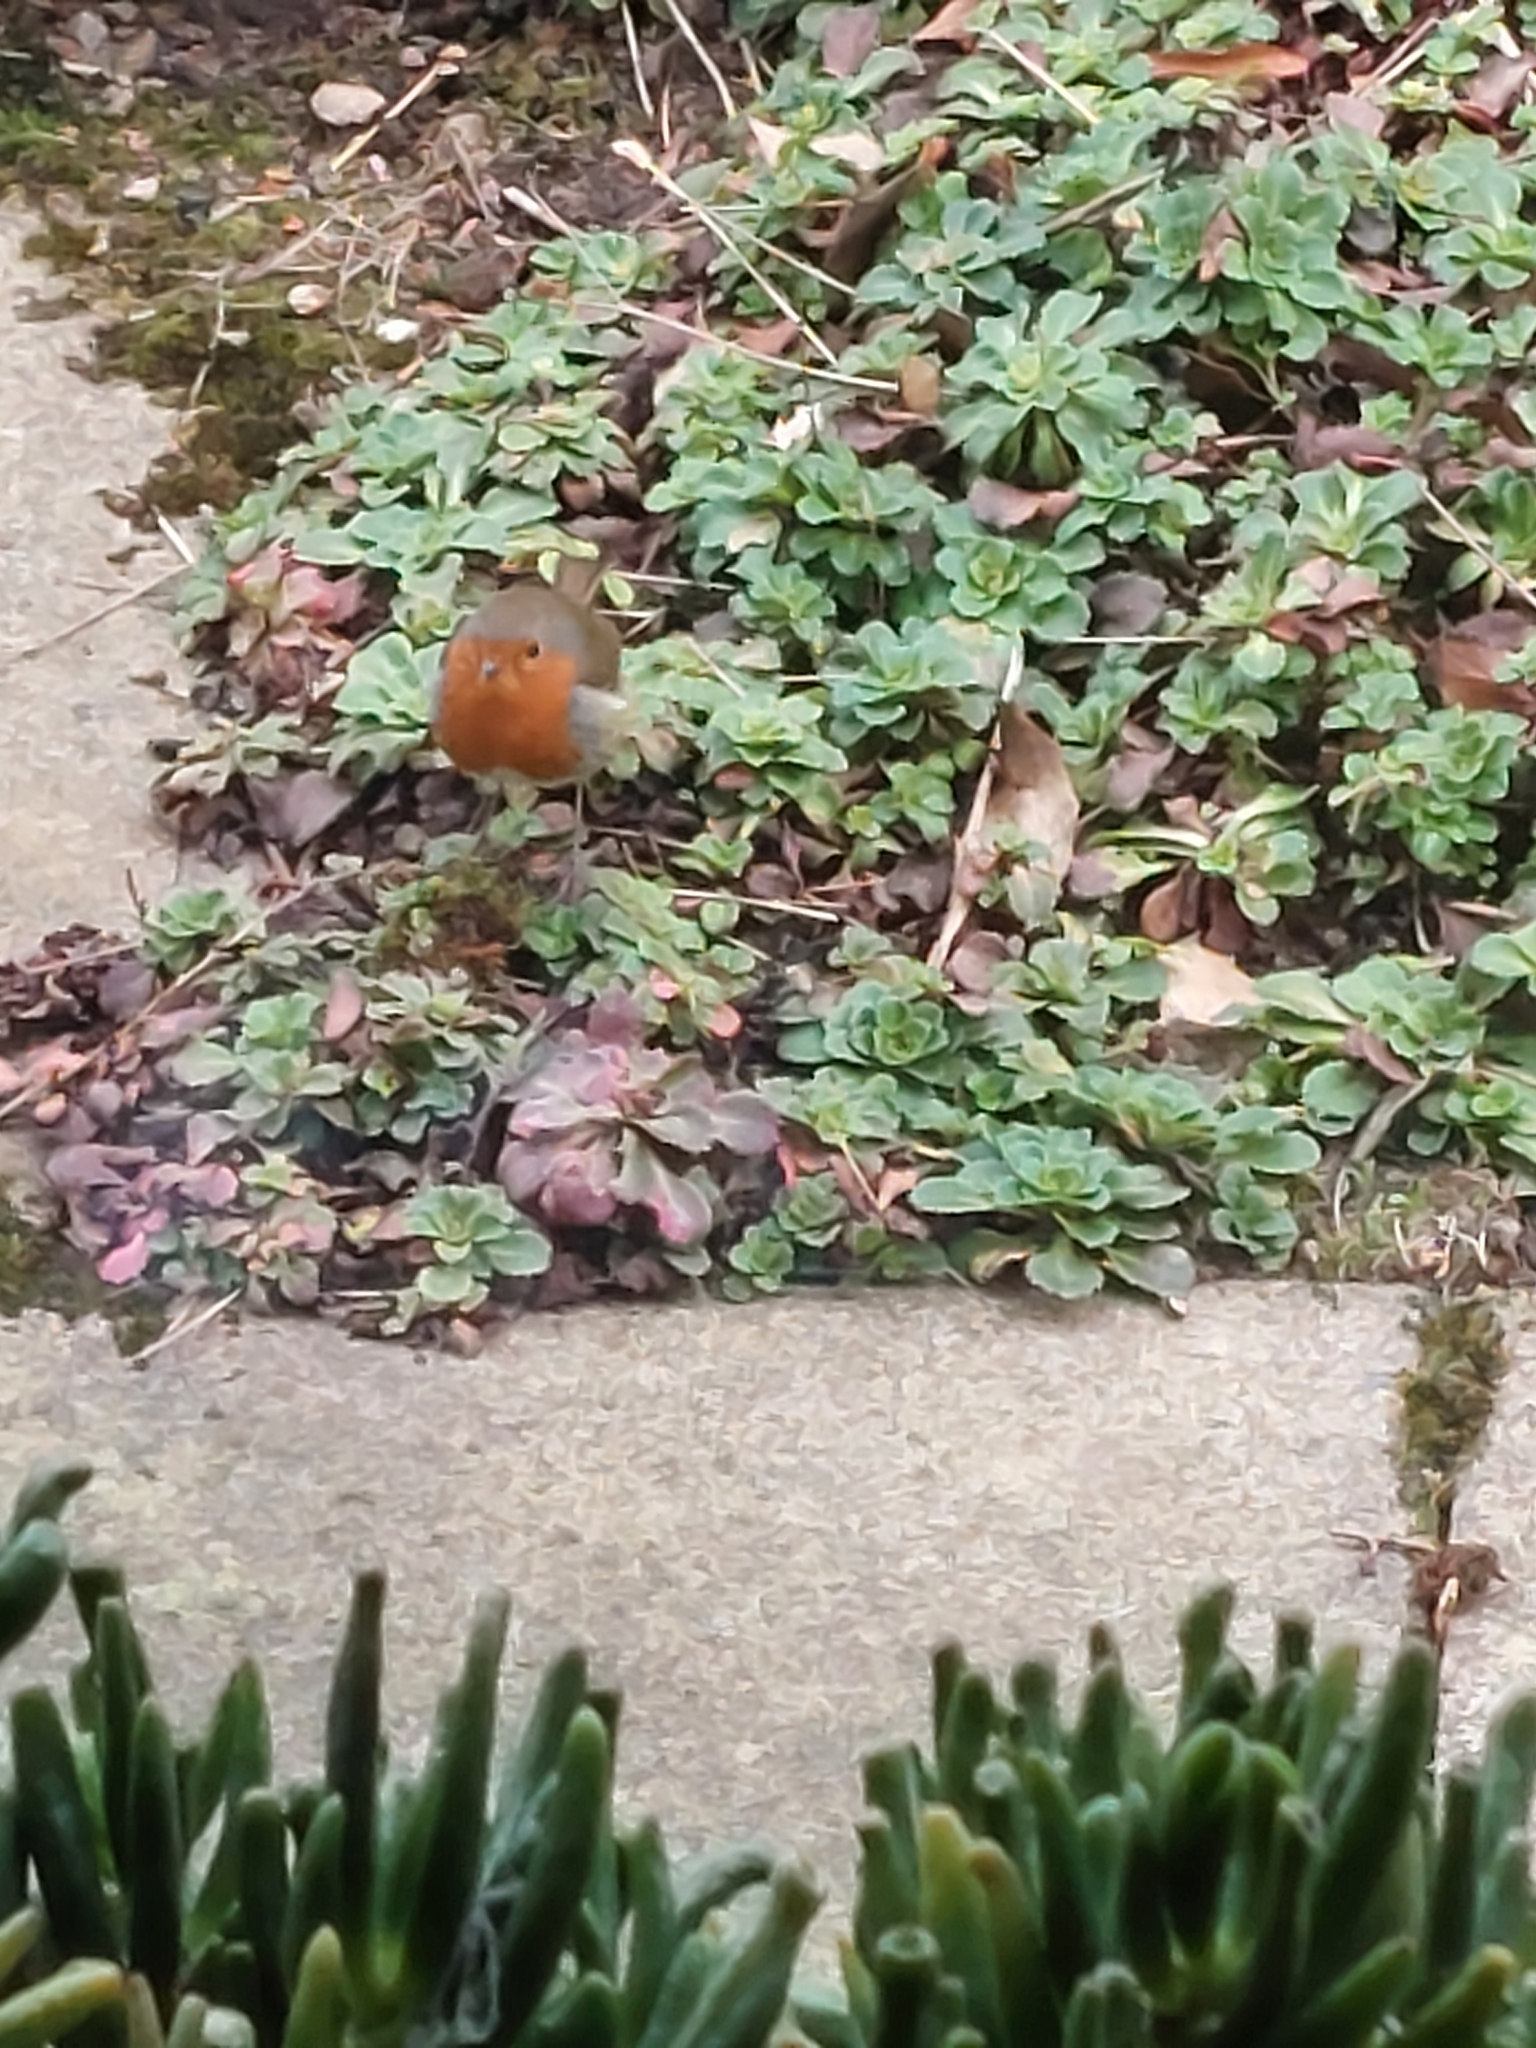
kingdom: Animalia
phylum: Chordata
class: Aves
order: Passeriformes
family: Muscicapidae
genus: Erithacus
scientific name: Erithacus rubecula
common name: European robin
